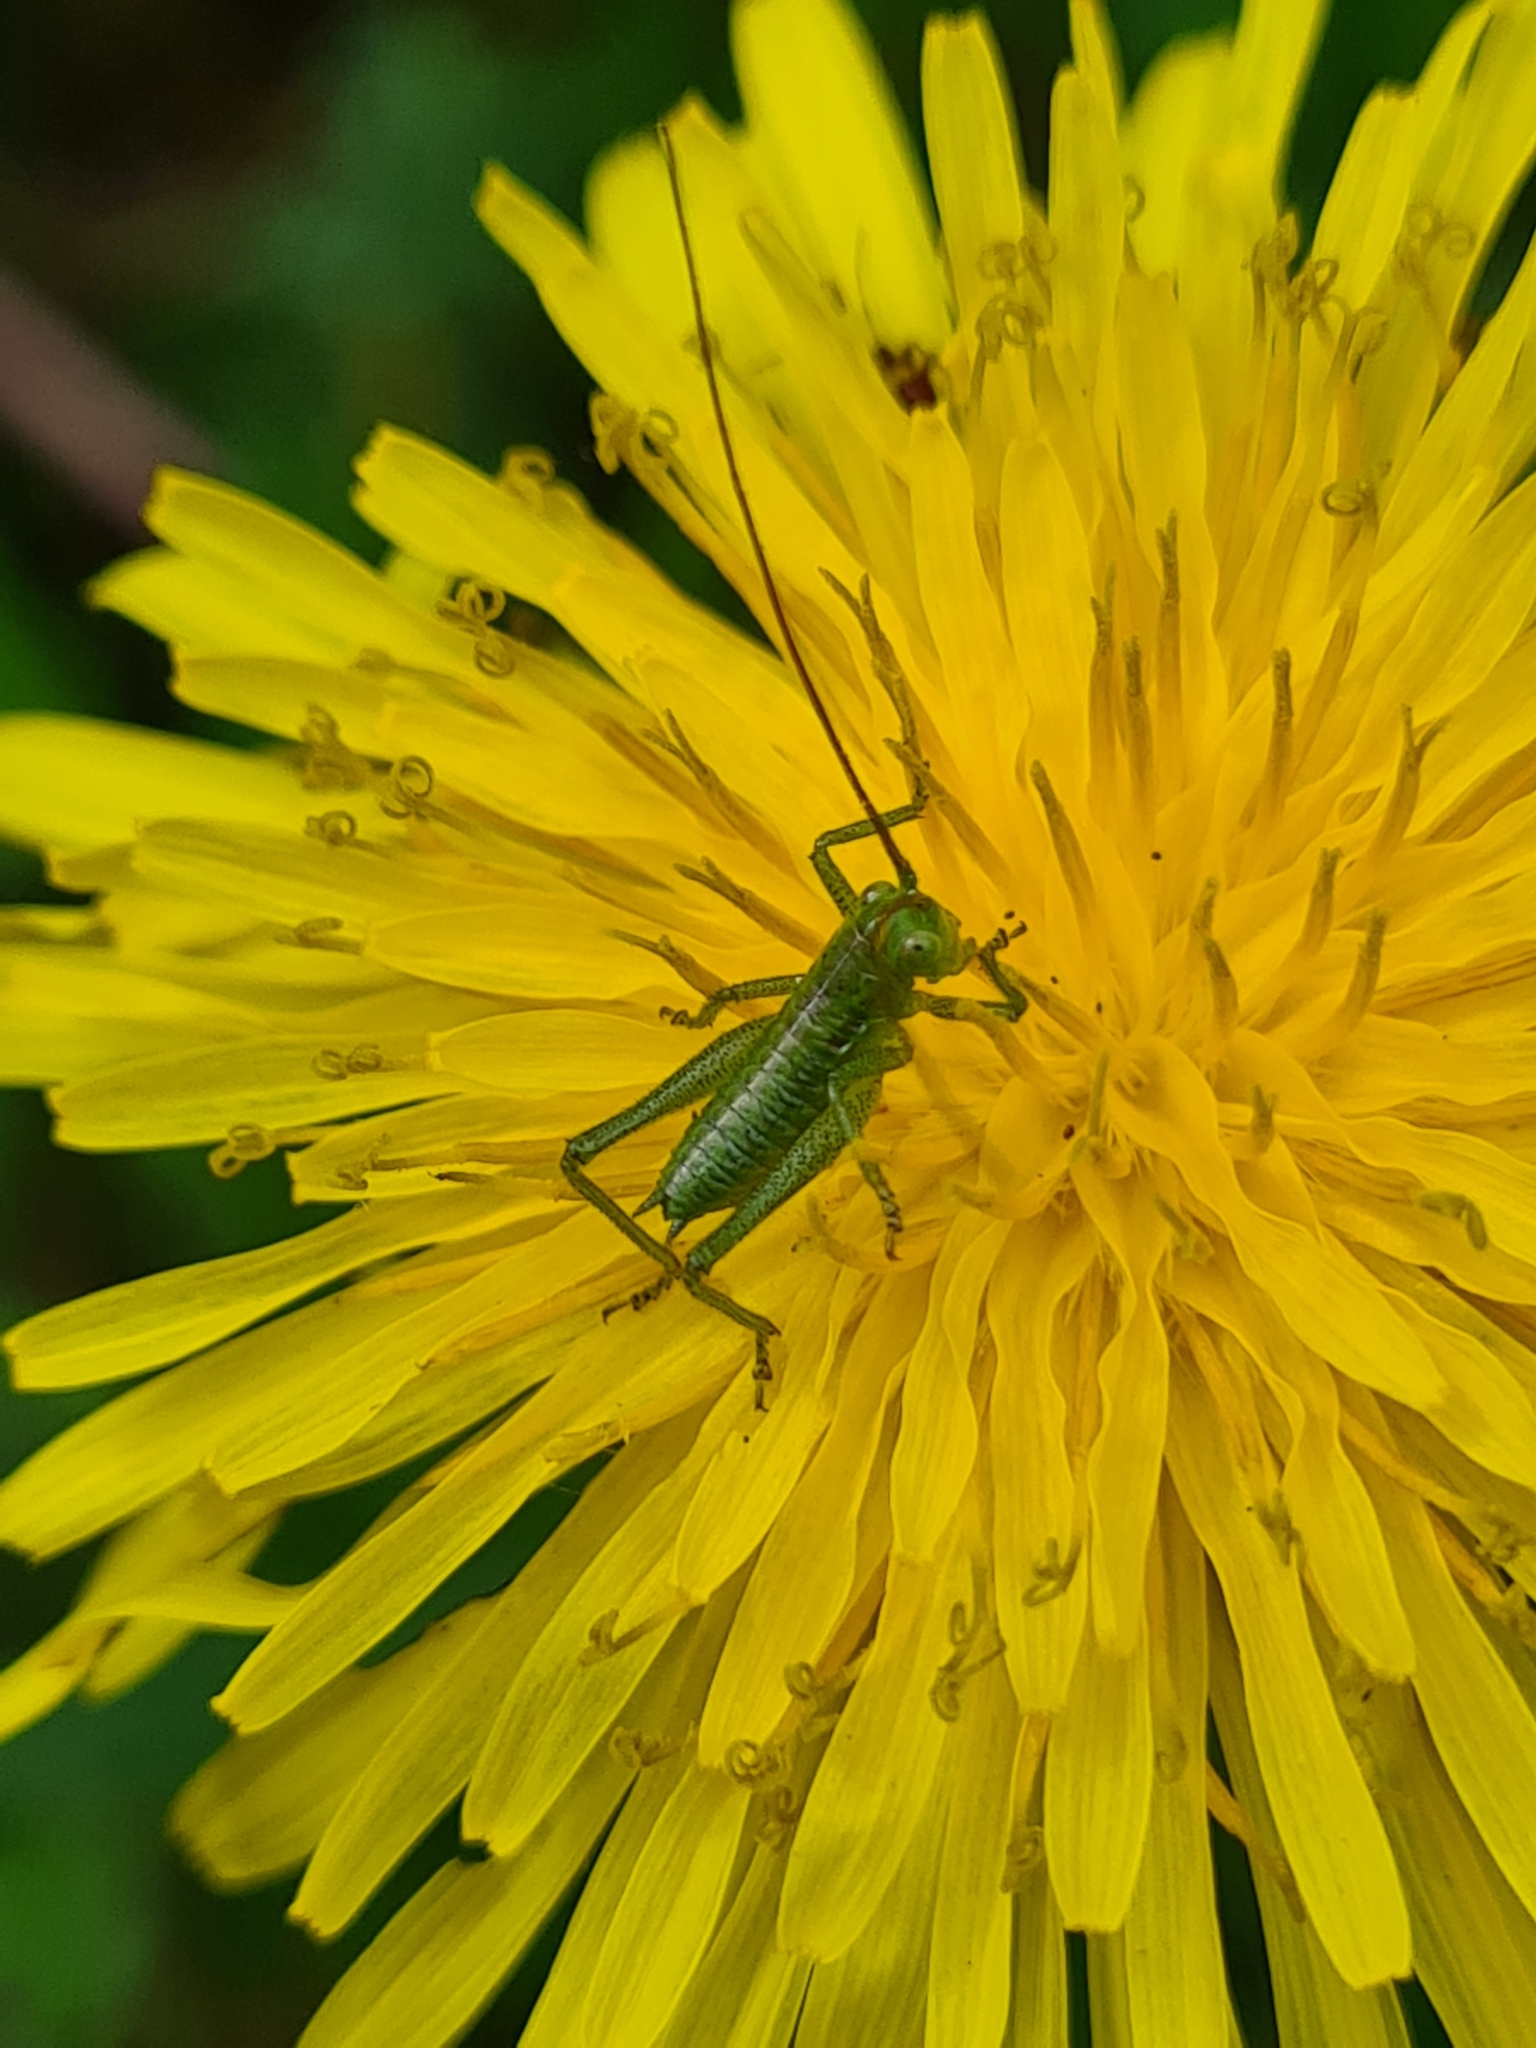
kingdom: Animalia
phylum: Arthropoda
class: Insecta
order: Orthoptera
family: Tettigoniidae
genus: Tettigonia
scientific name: Tettigonia viridissima
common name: Great green bush-cricket
